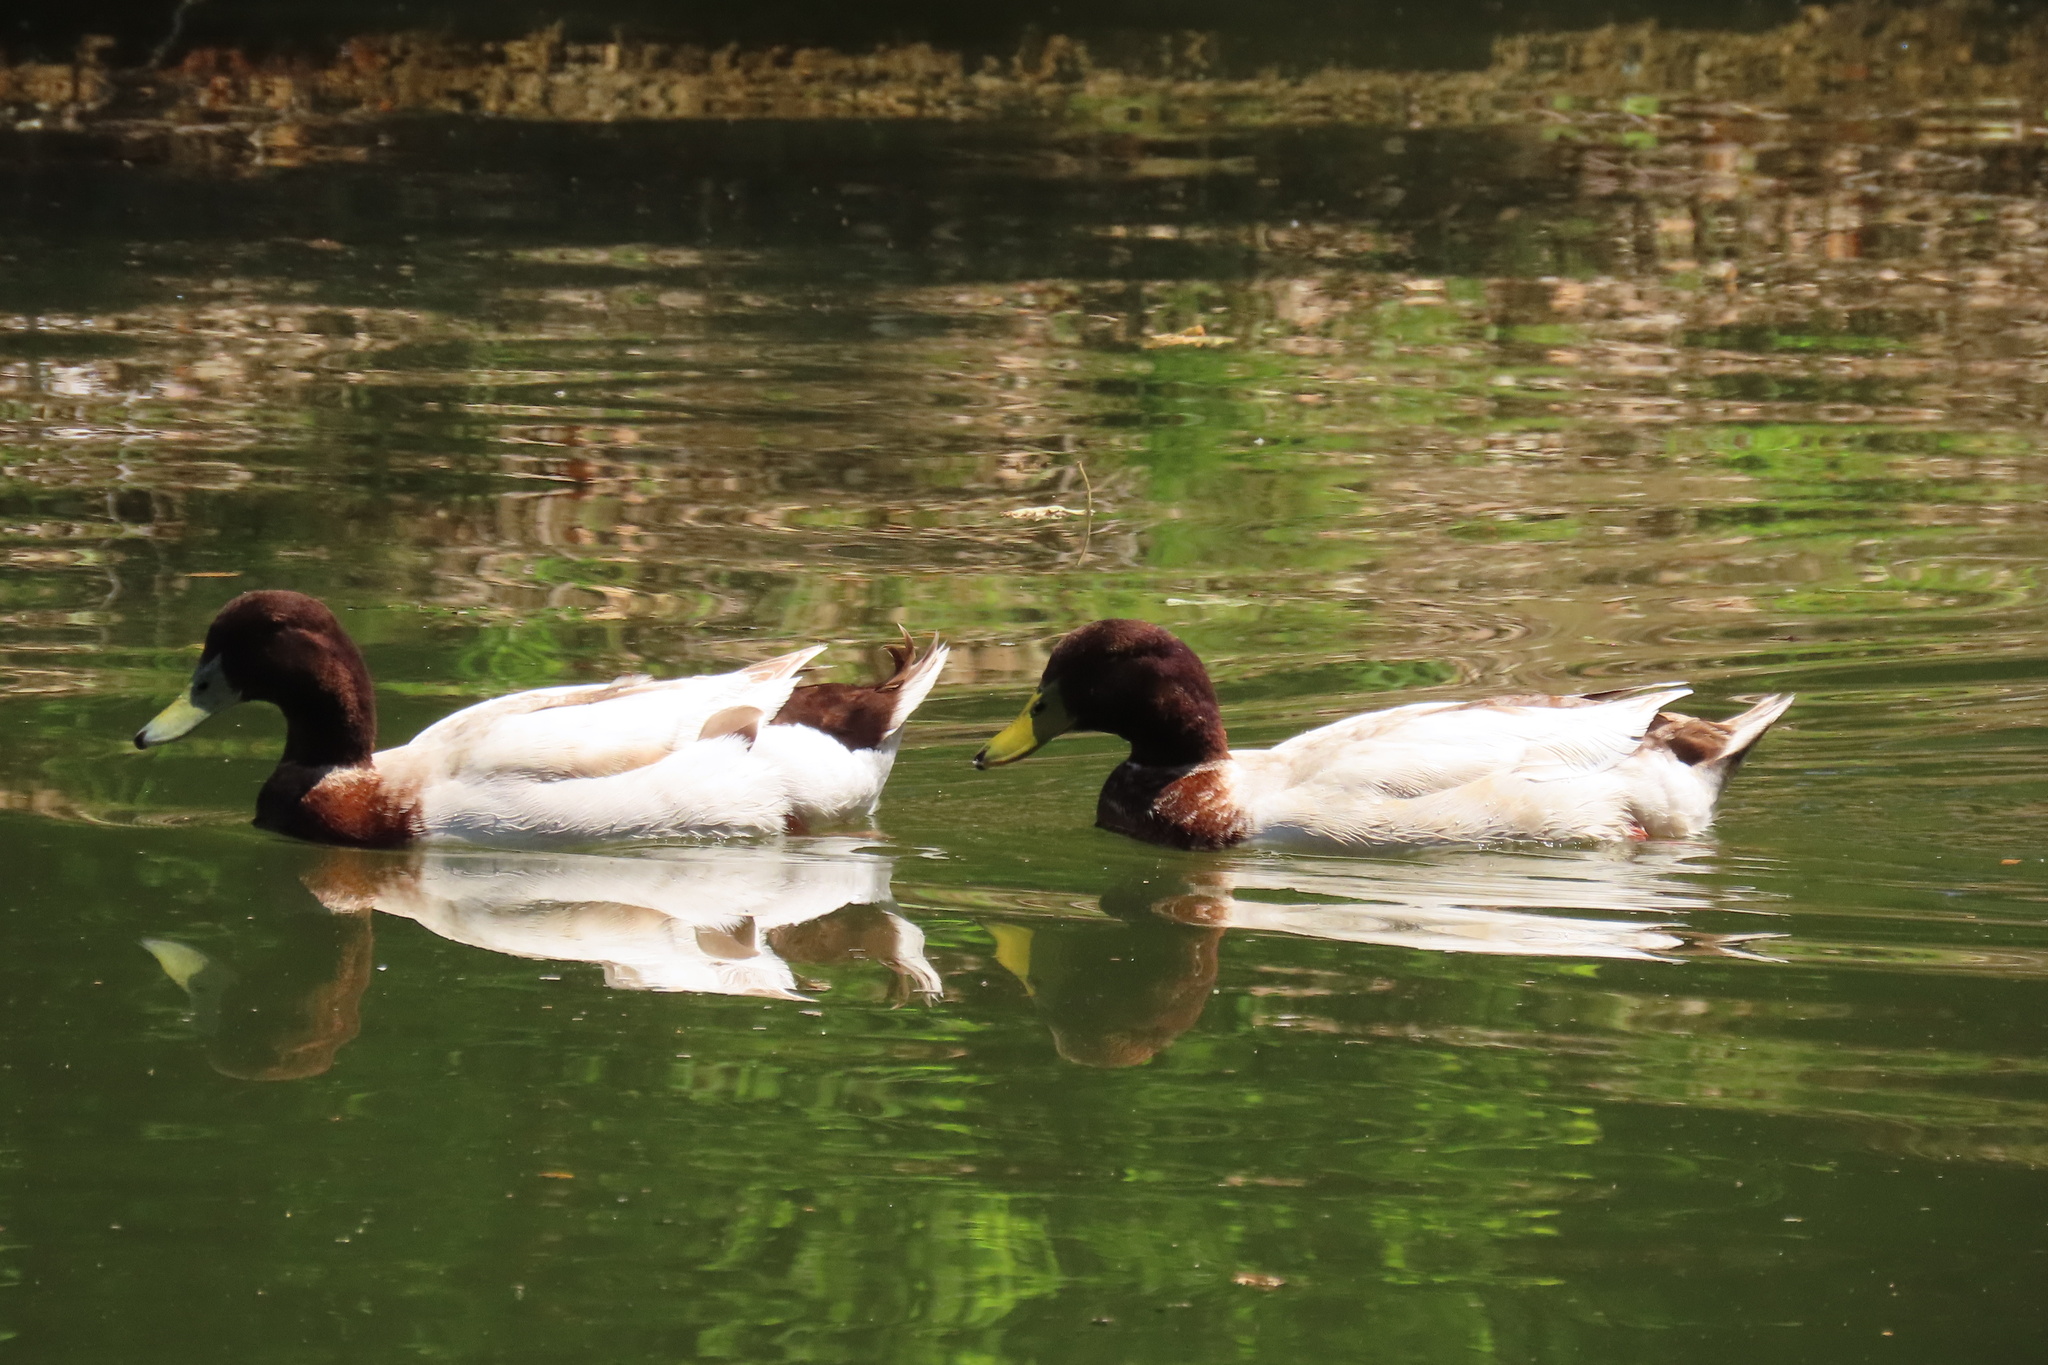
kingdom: Animalia
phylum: Chordata
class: Aves
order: Anseriformes
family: Anatidae
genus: Anas
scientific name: Anas platyrhynchos
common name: Mallard
